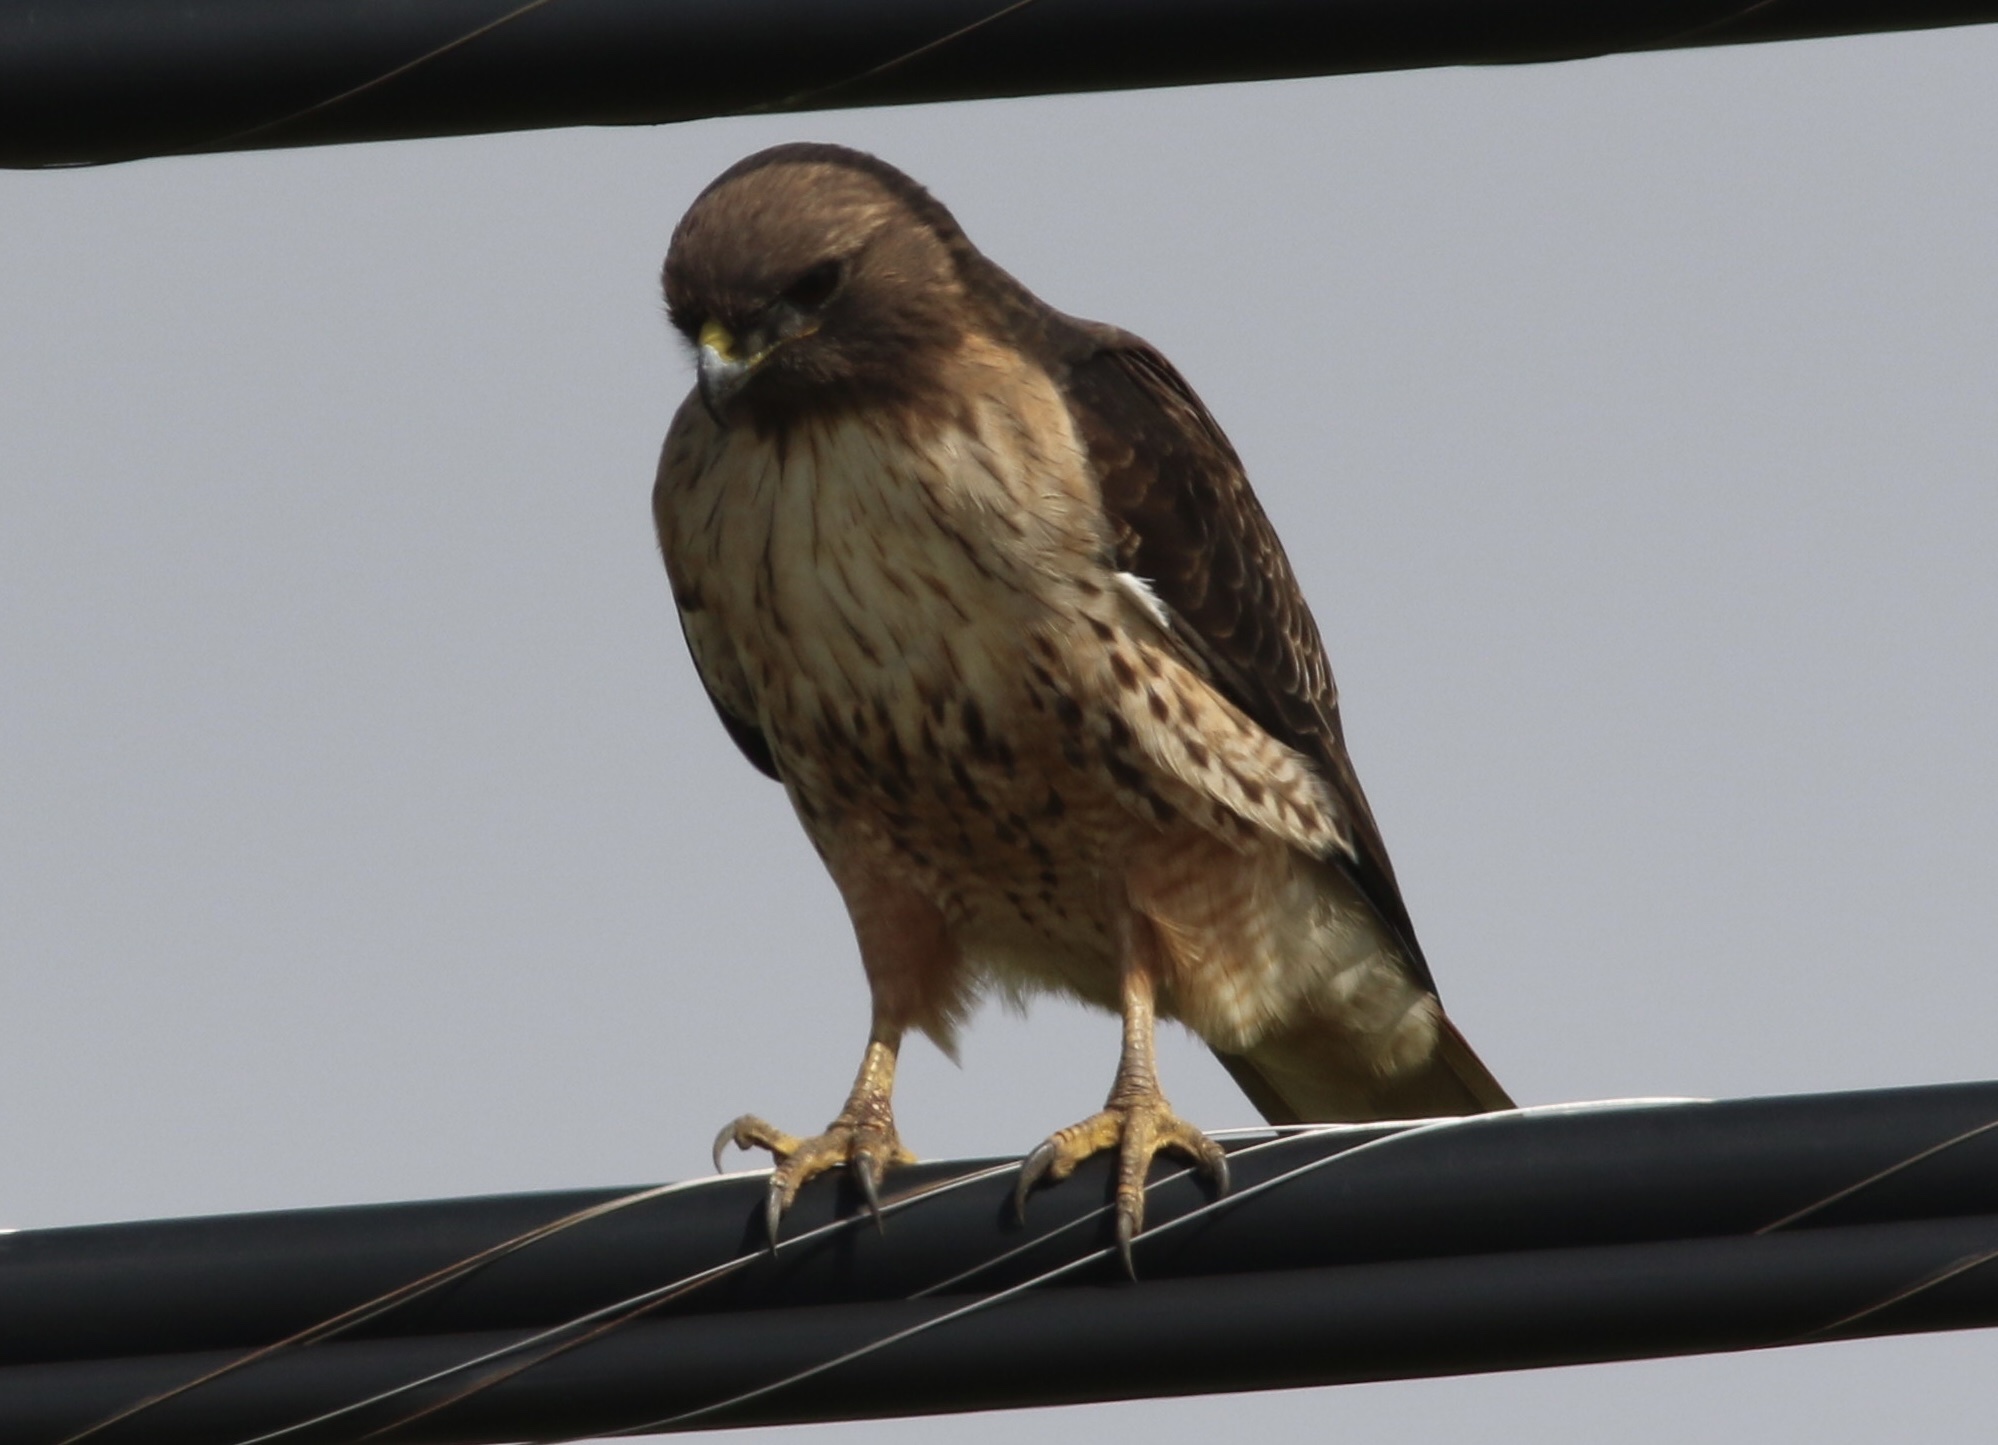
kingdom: Animalia
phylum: Chordata
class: Aves
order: Accipitriformes
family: Accipitridae
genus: Buteo
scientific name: Buteo jamaicensis
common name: Red-tailed hawk
